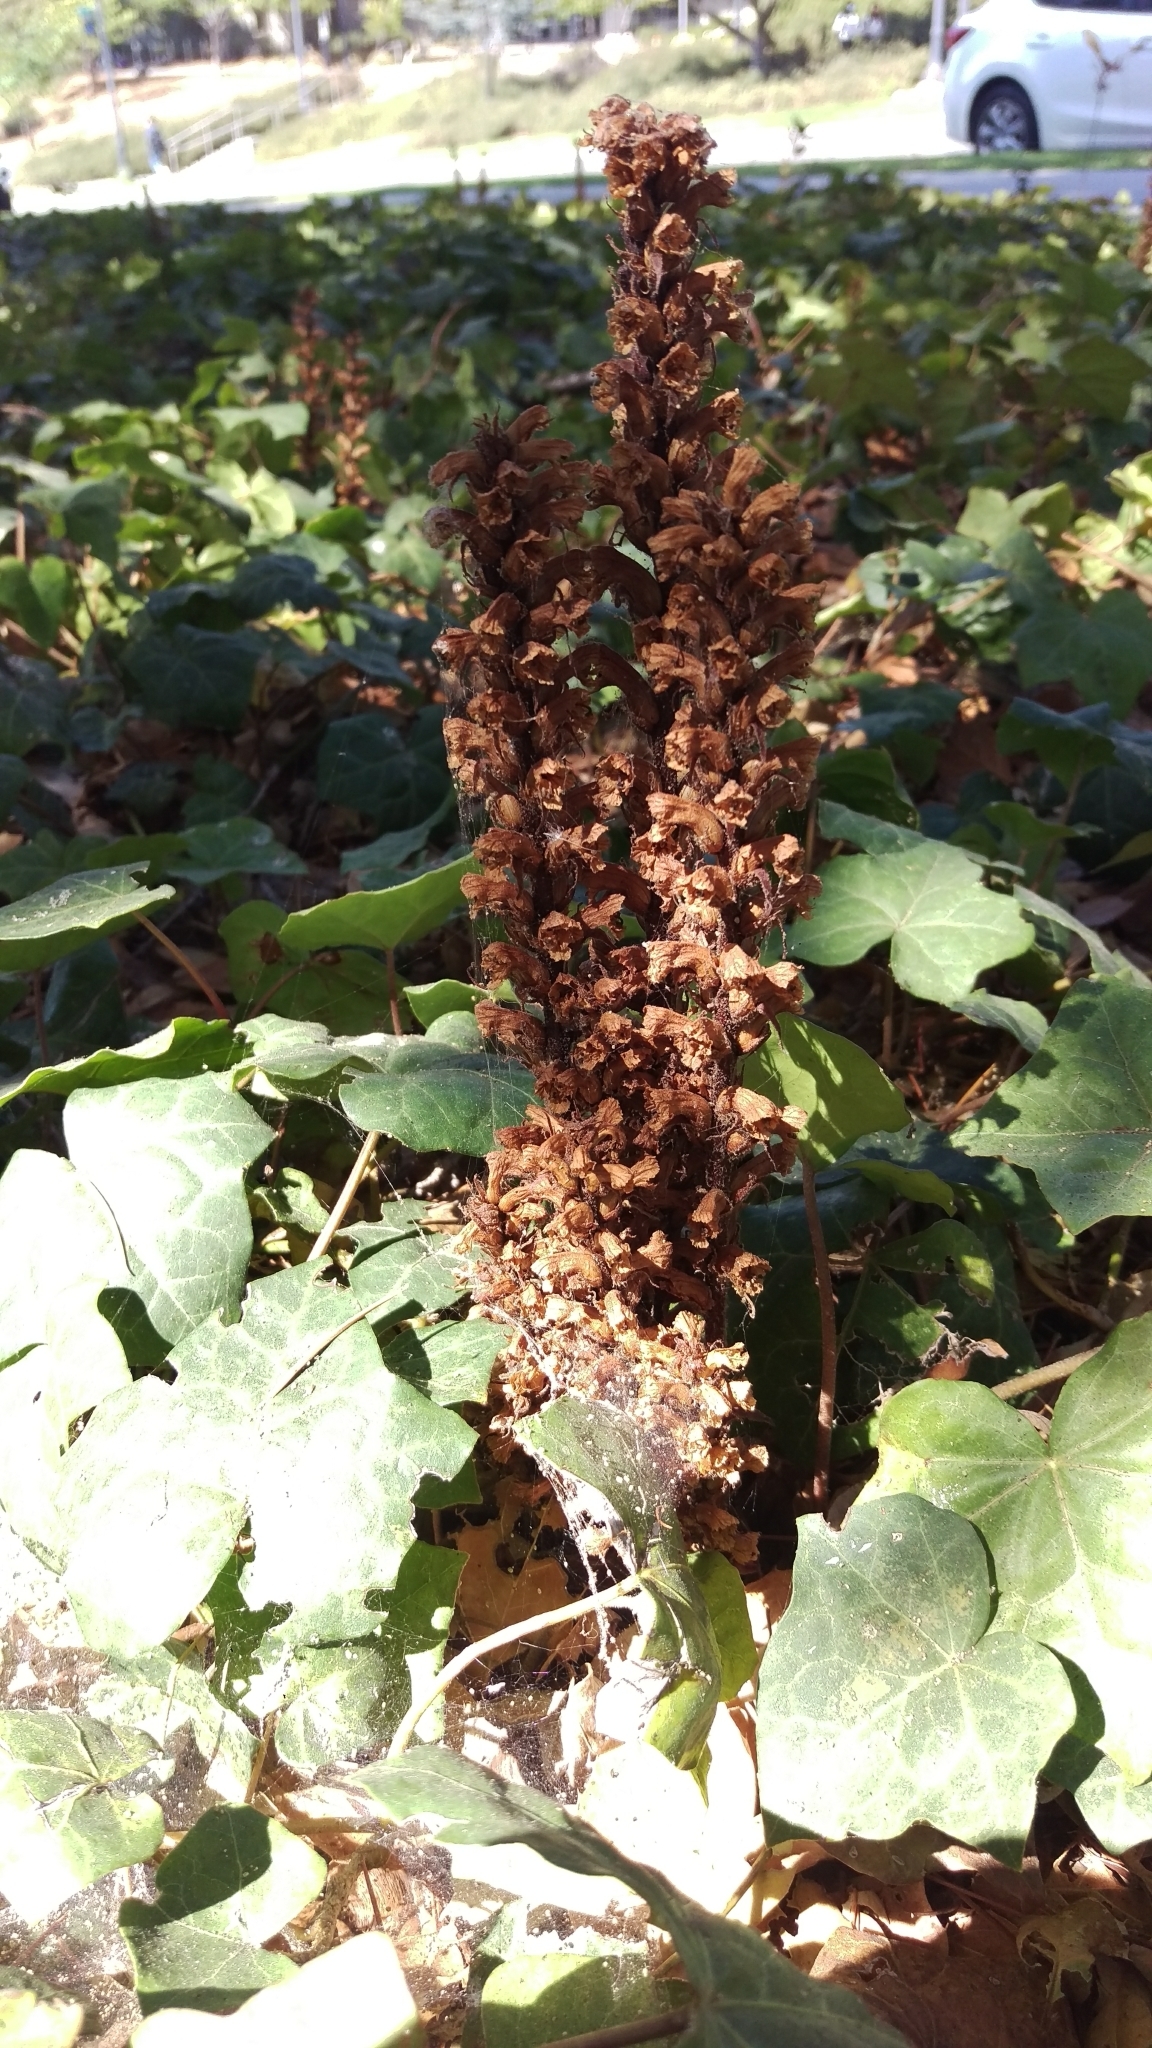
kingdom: Plantae
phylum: Tracheophyta
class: Magnoliopsida
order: Lamiales
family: Orobanchaceae
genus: Orobanche
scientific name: Orobanche hederae
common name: Ivy broomrape
